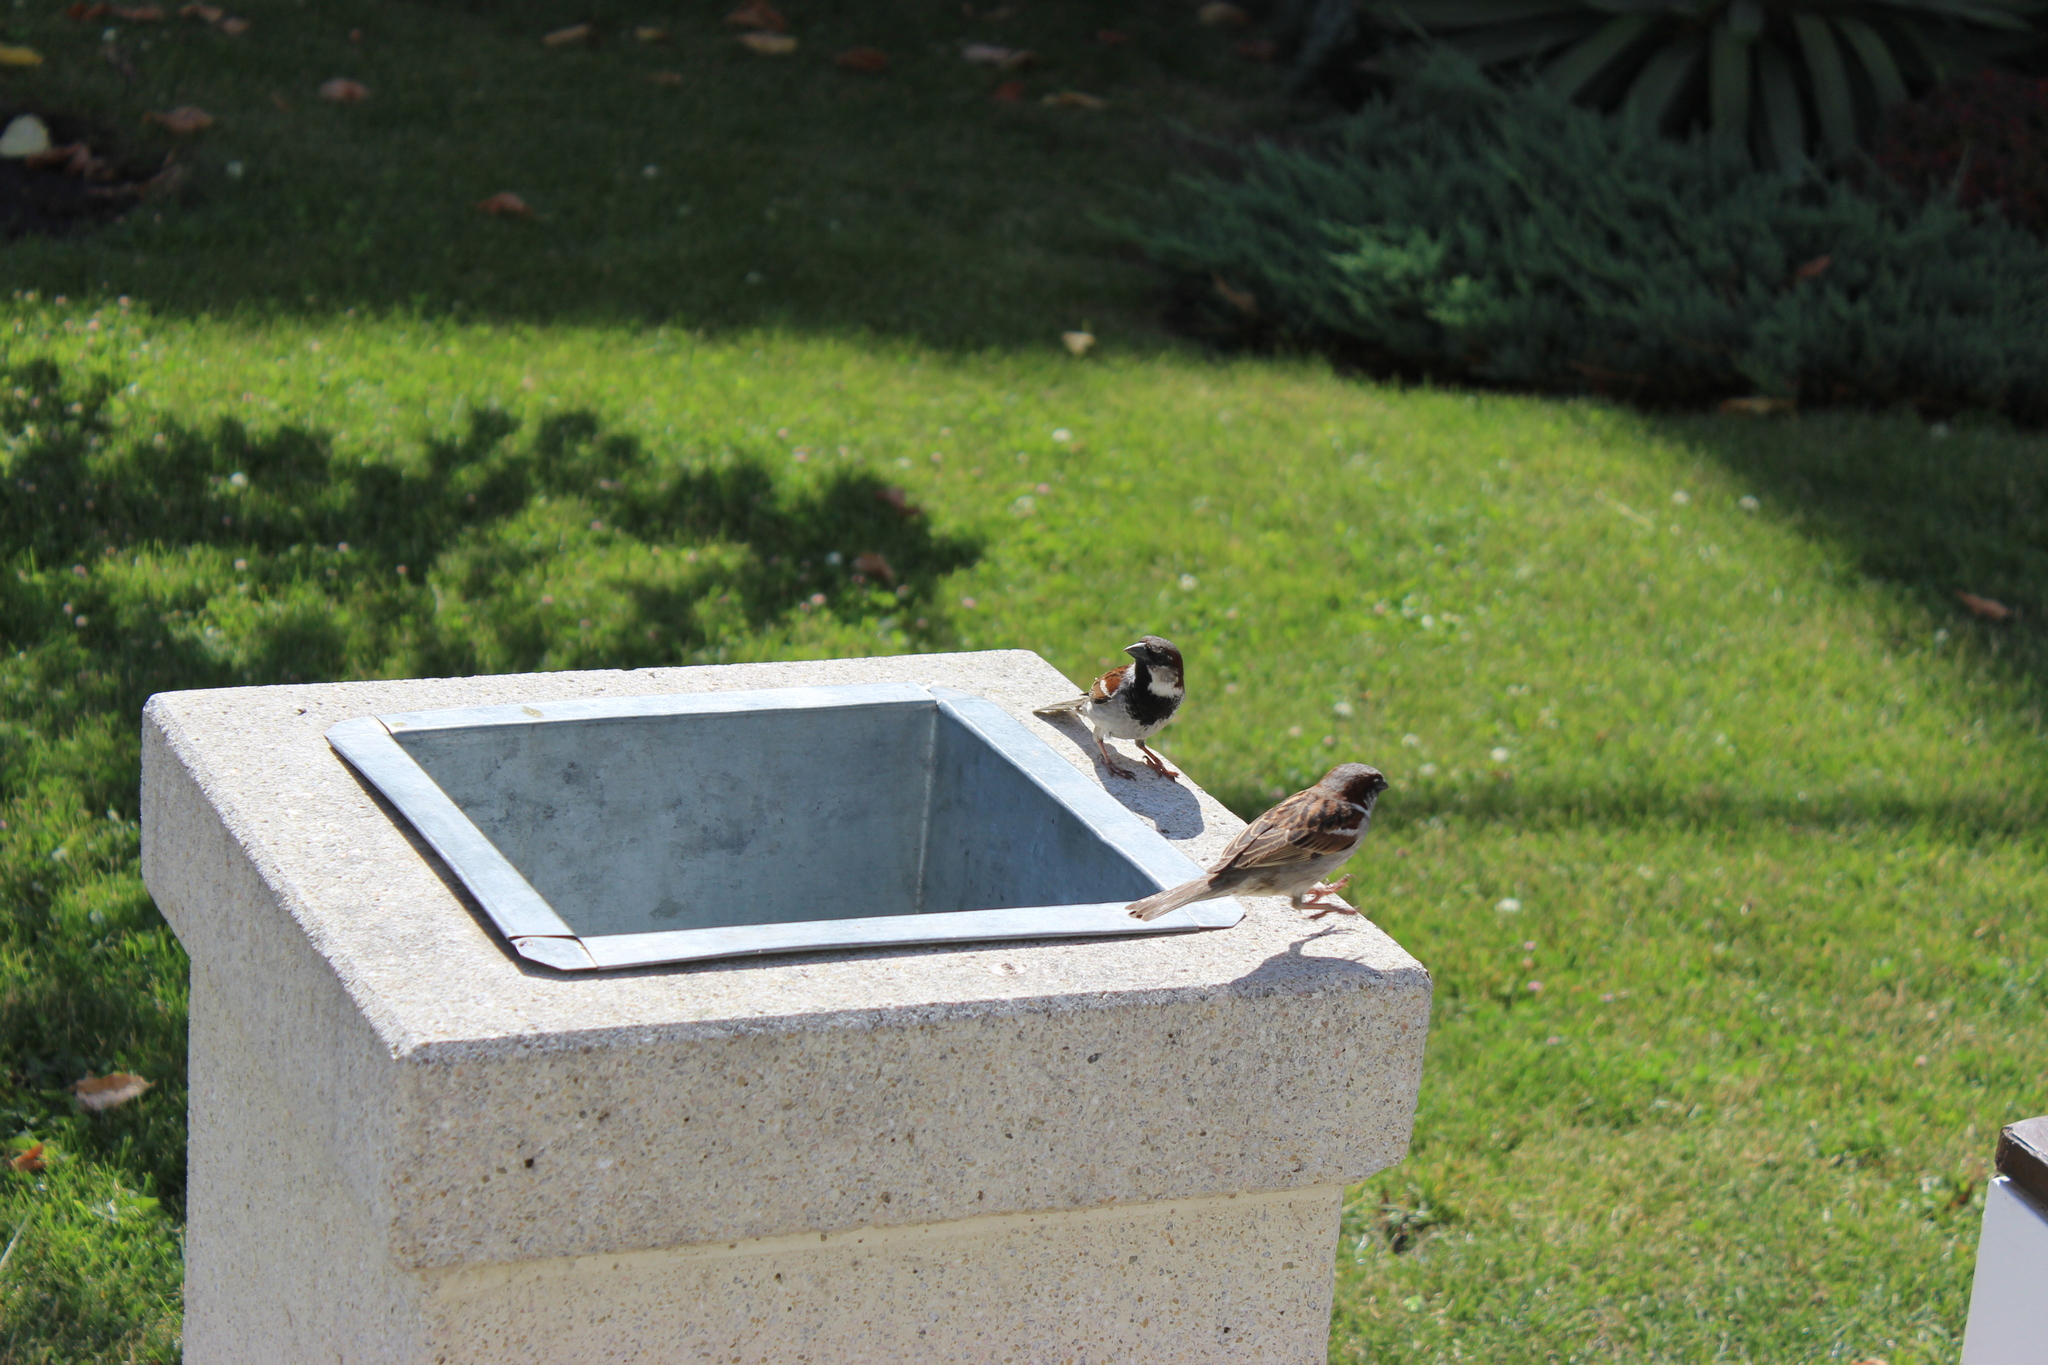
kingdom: Animalia
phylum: Chordata
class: Aves
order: Passeriformes
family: Passeridae
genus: Passer
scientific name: Passer domesticus
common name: House sparrow
